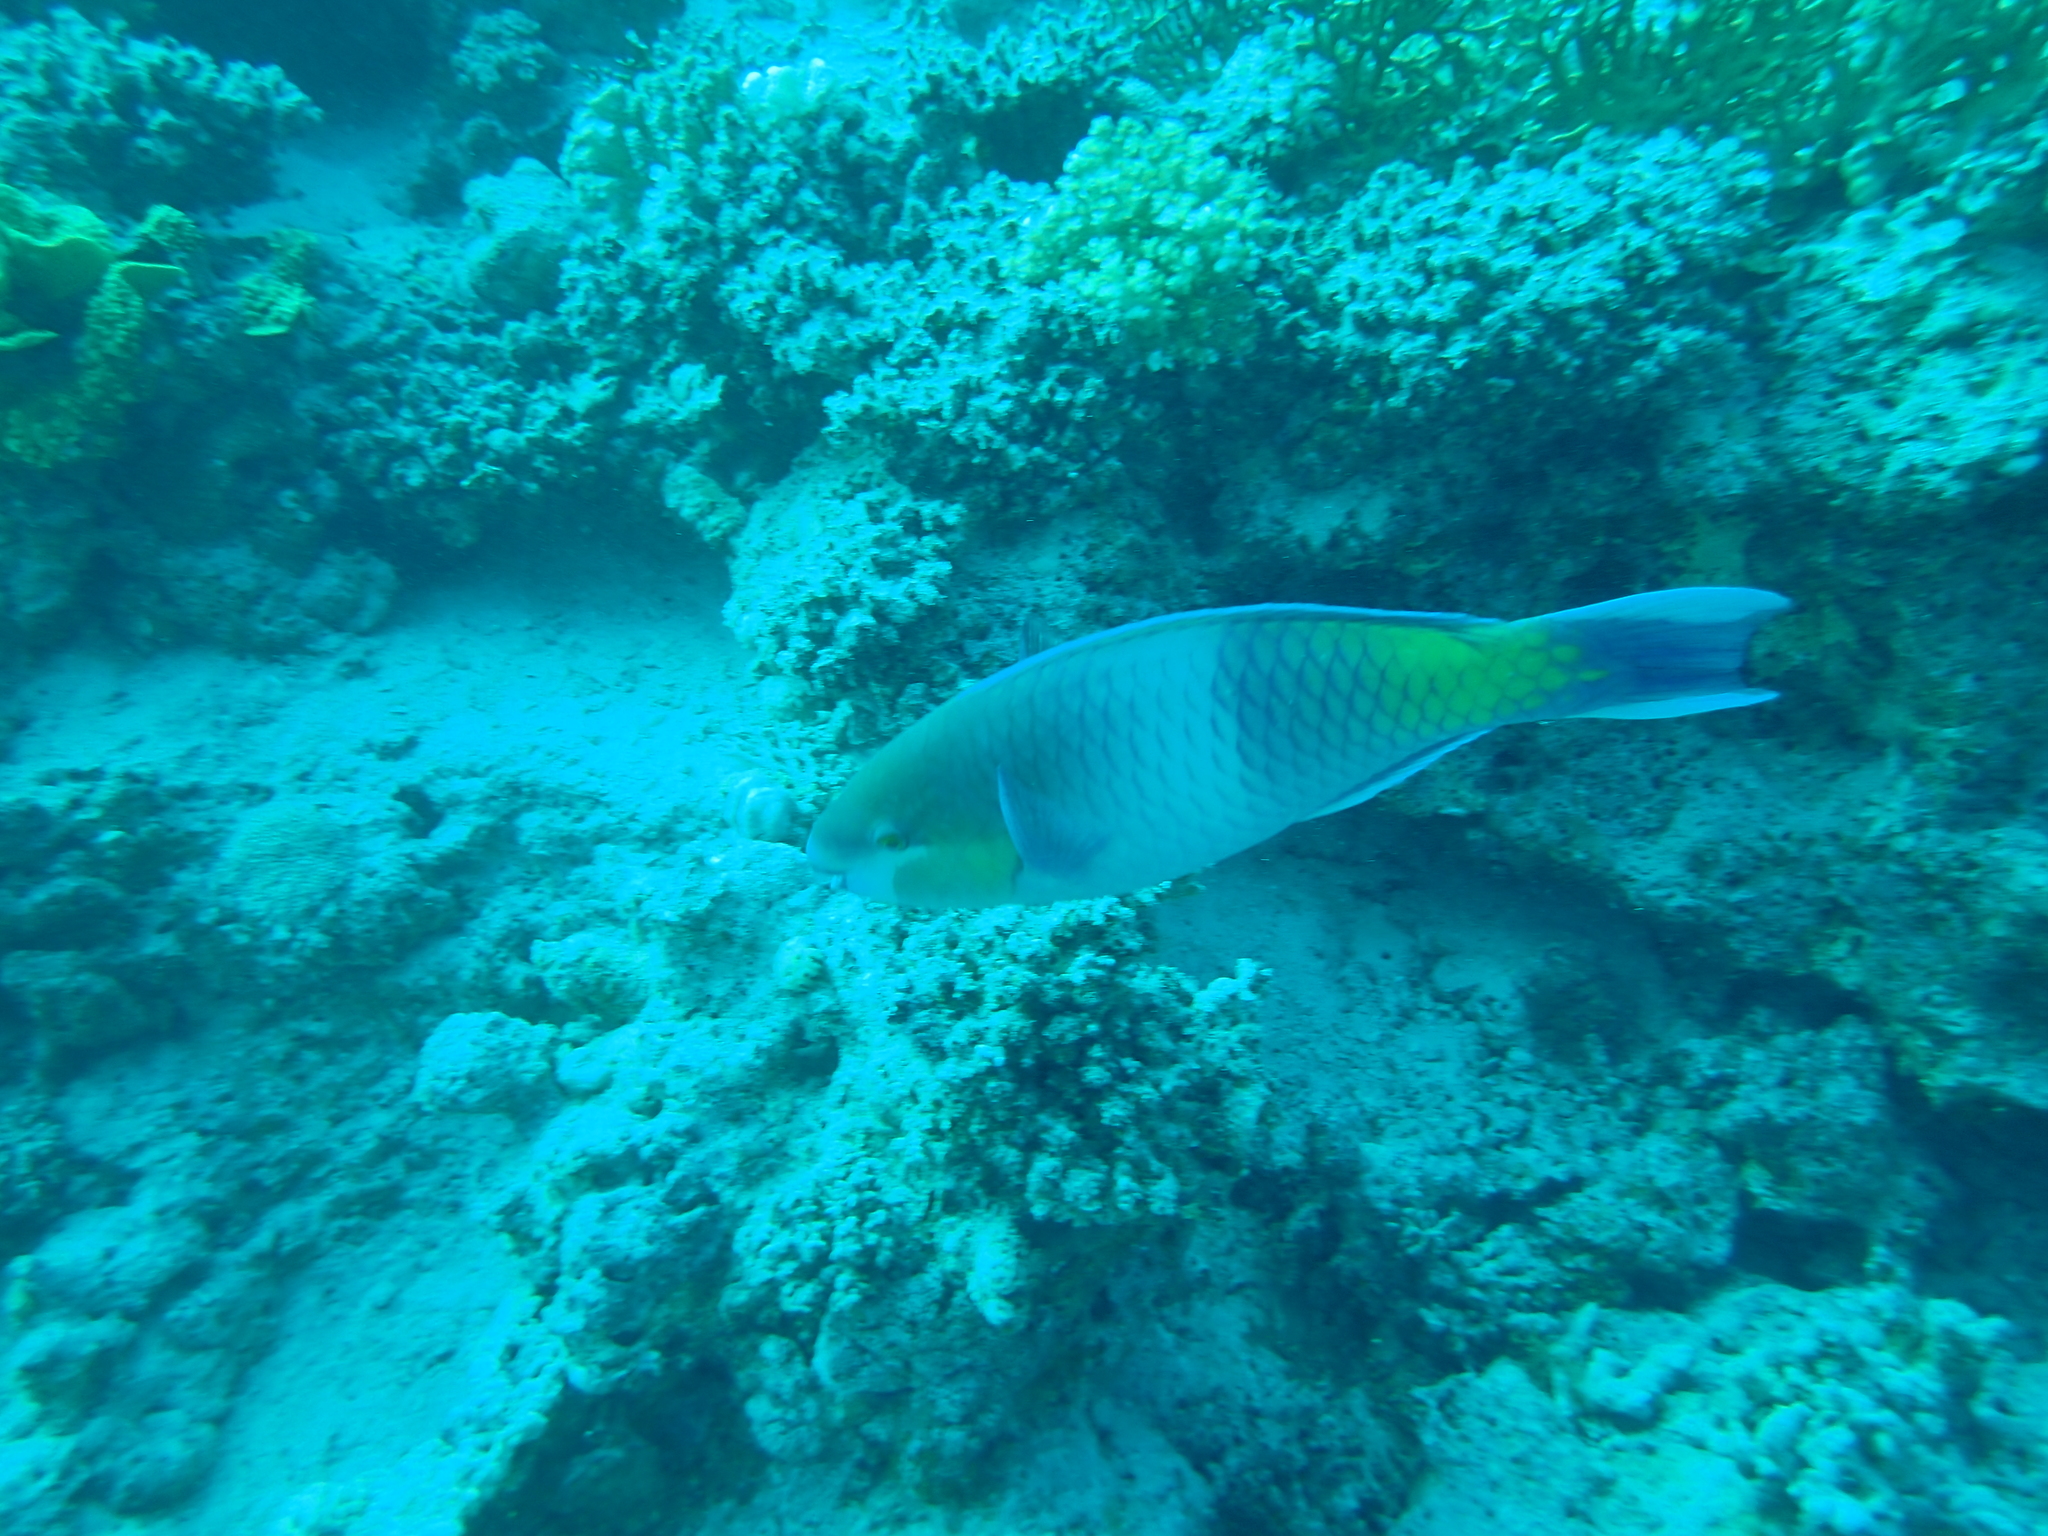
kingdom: Animalia
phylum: Chordata
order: Perciformes
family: Scaridae
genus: Scarus
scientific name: Scarus ferrugineus
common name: Rusty parrotfish
